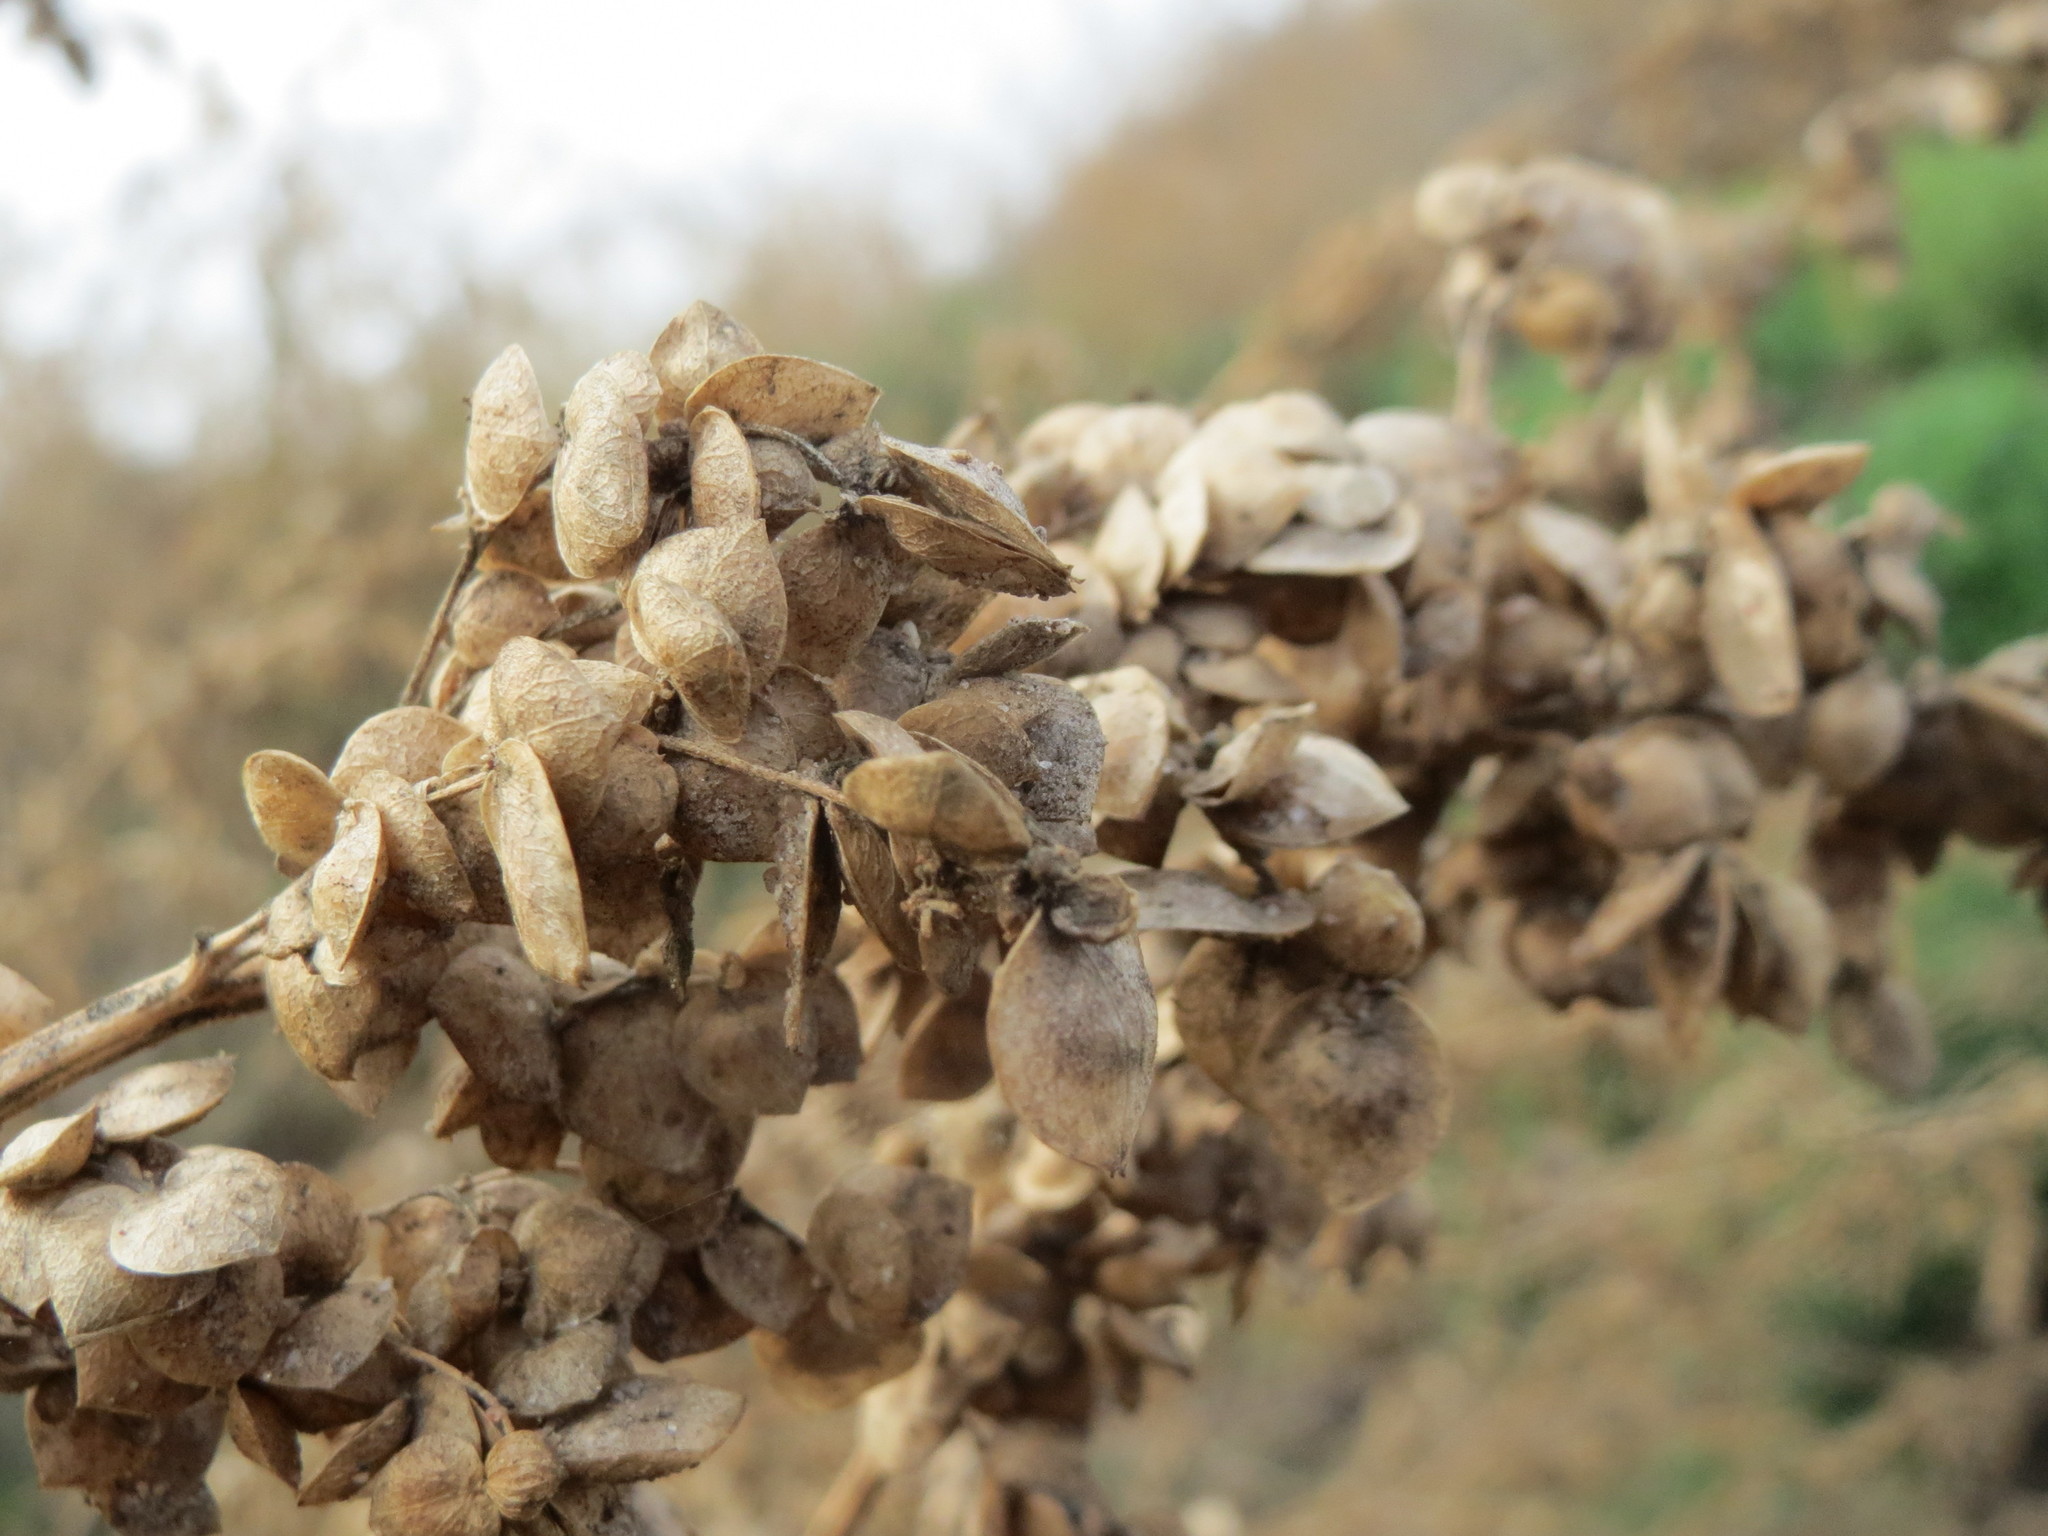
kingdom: Plantae
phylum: Tracheophyta
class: Magnoliopsida
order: Caryophyllales
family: Amaranthaceae
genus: Atriplex
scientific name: Atriplex sagittata
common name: Purple orache
